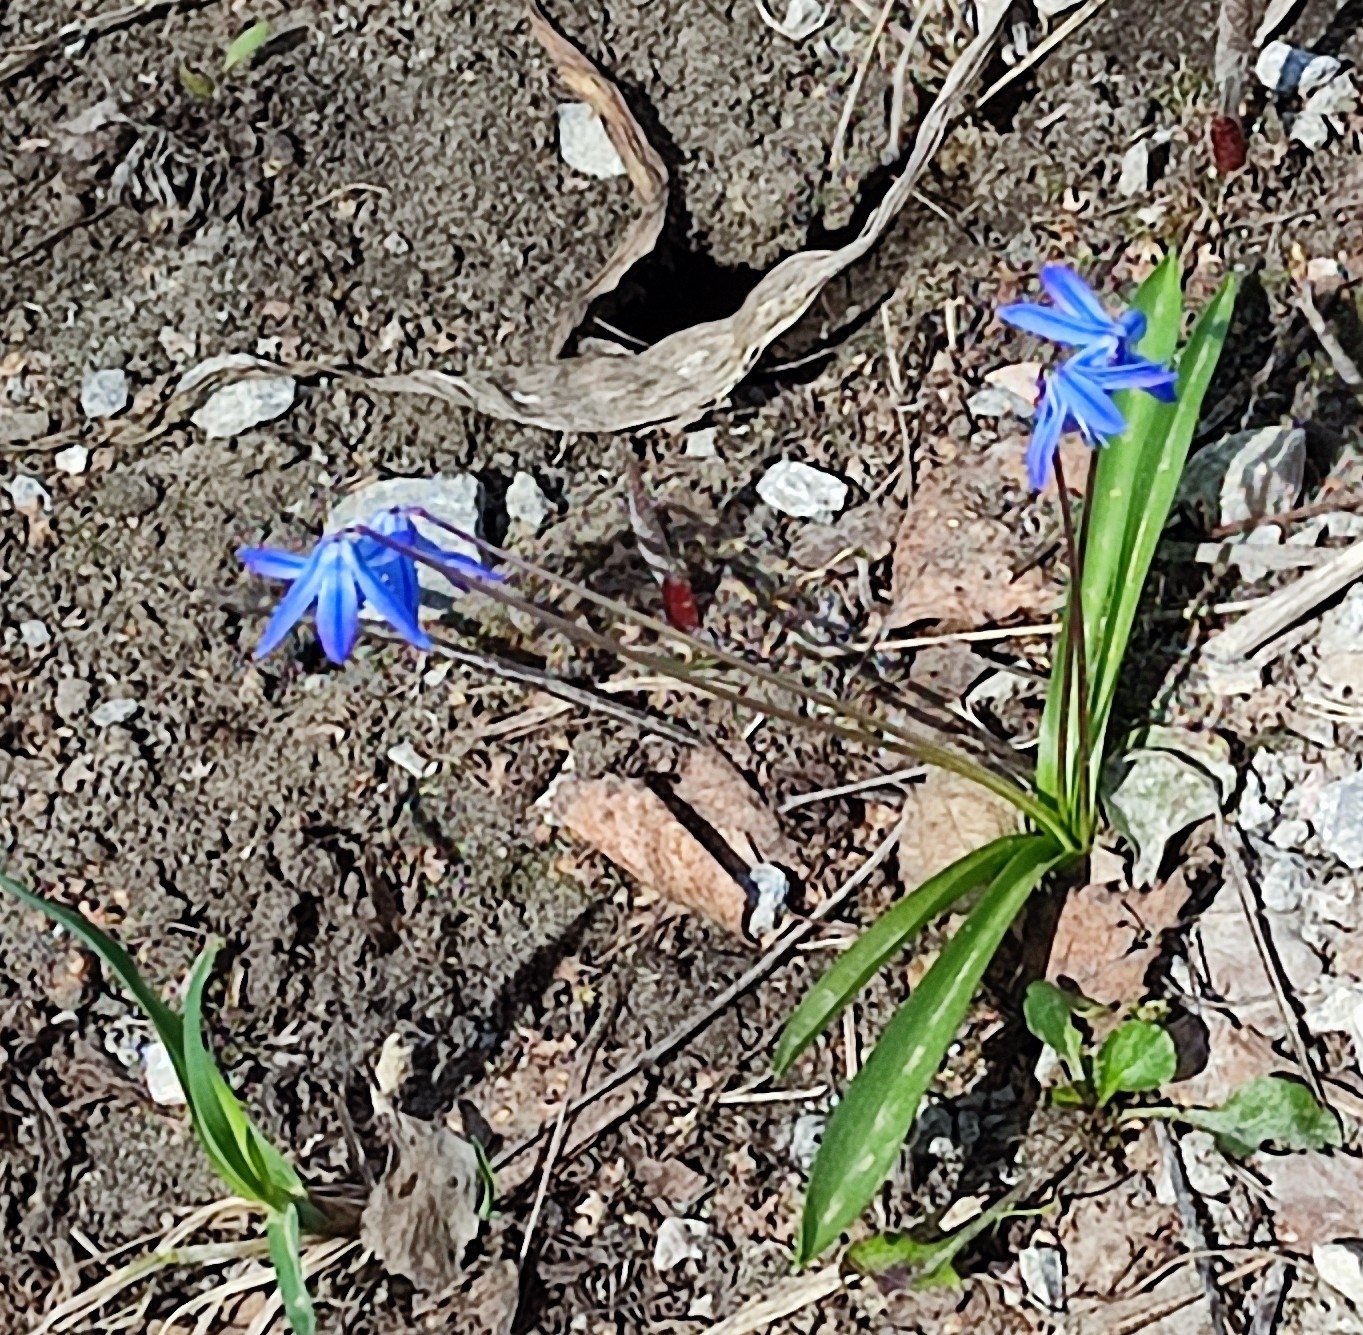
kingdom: Plantae
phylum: Tracheophyta
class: Liliopsida
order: Asparagales
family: Asparagaceae
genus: Scilla
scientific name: Scilla siberica
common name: Siberian squill
